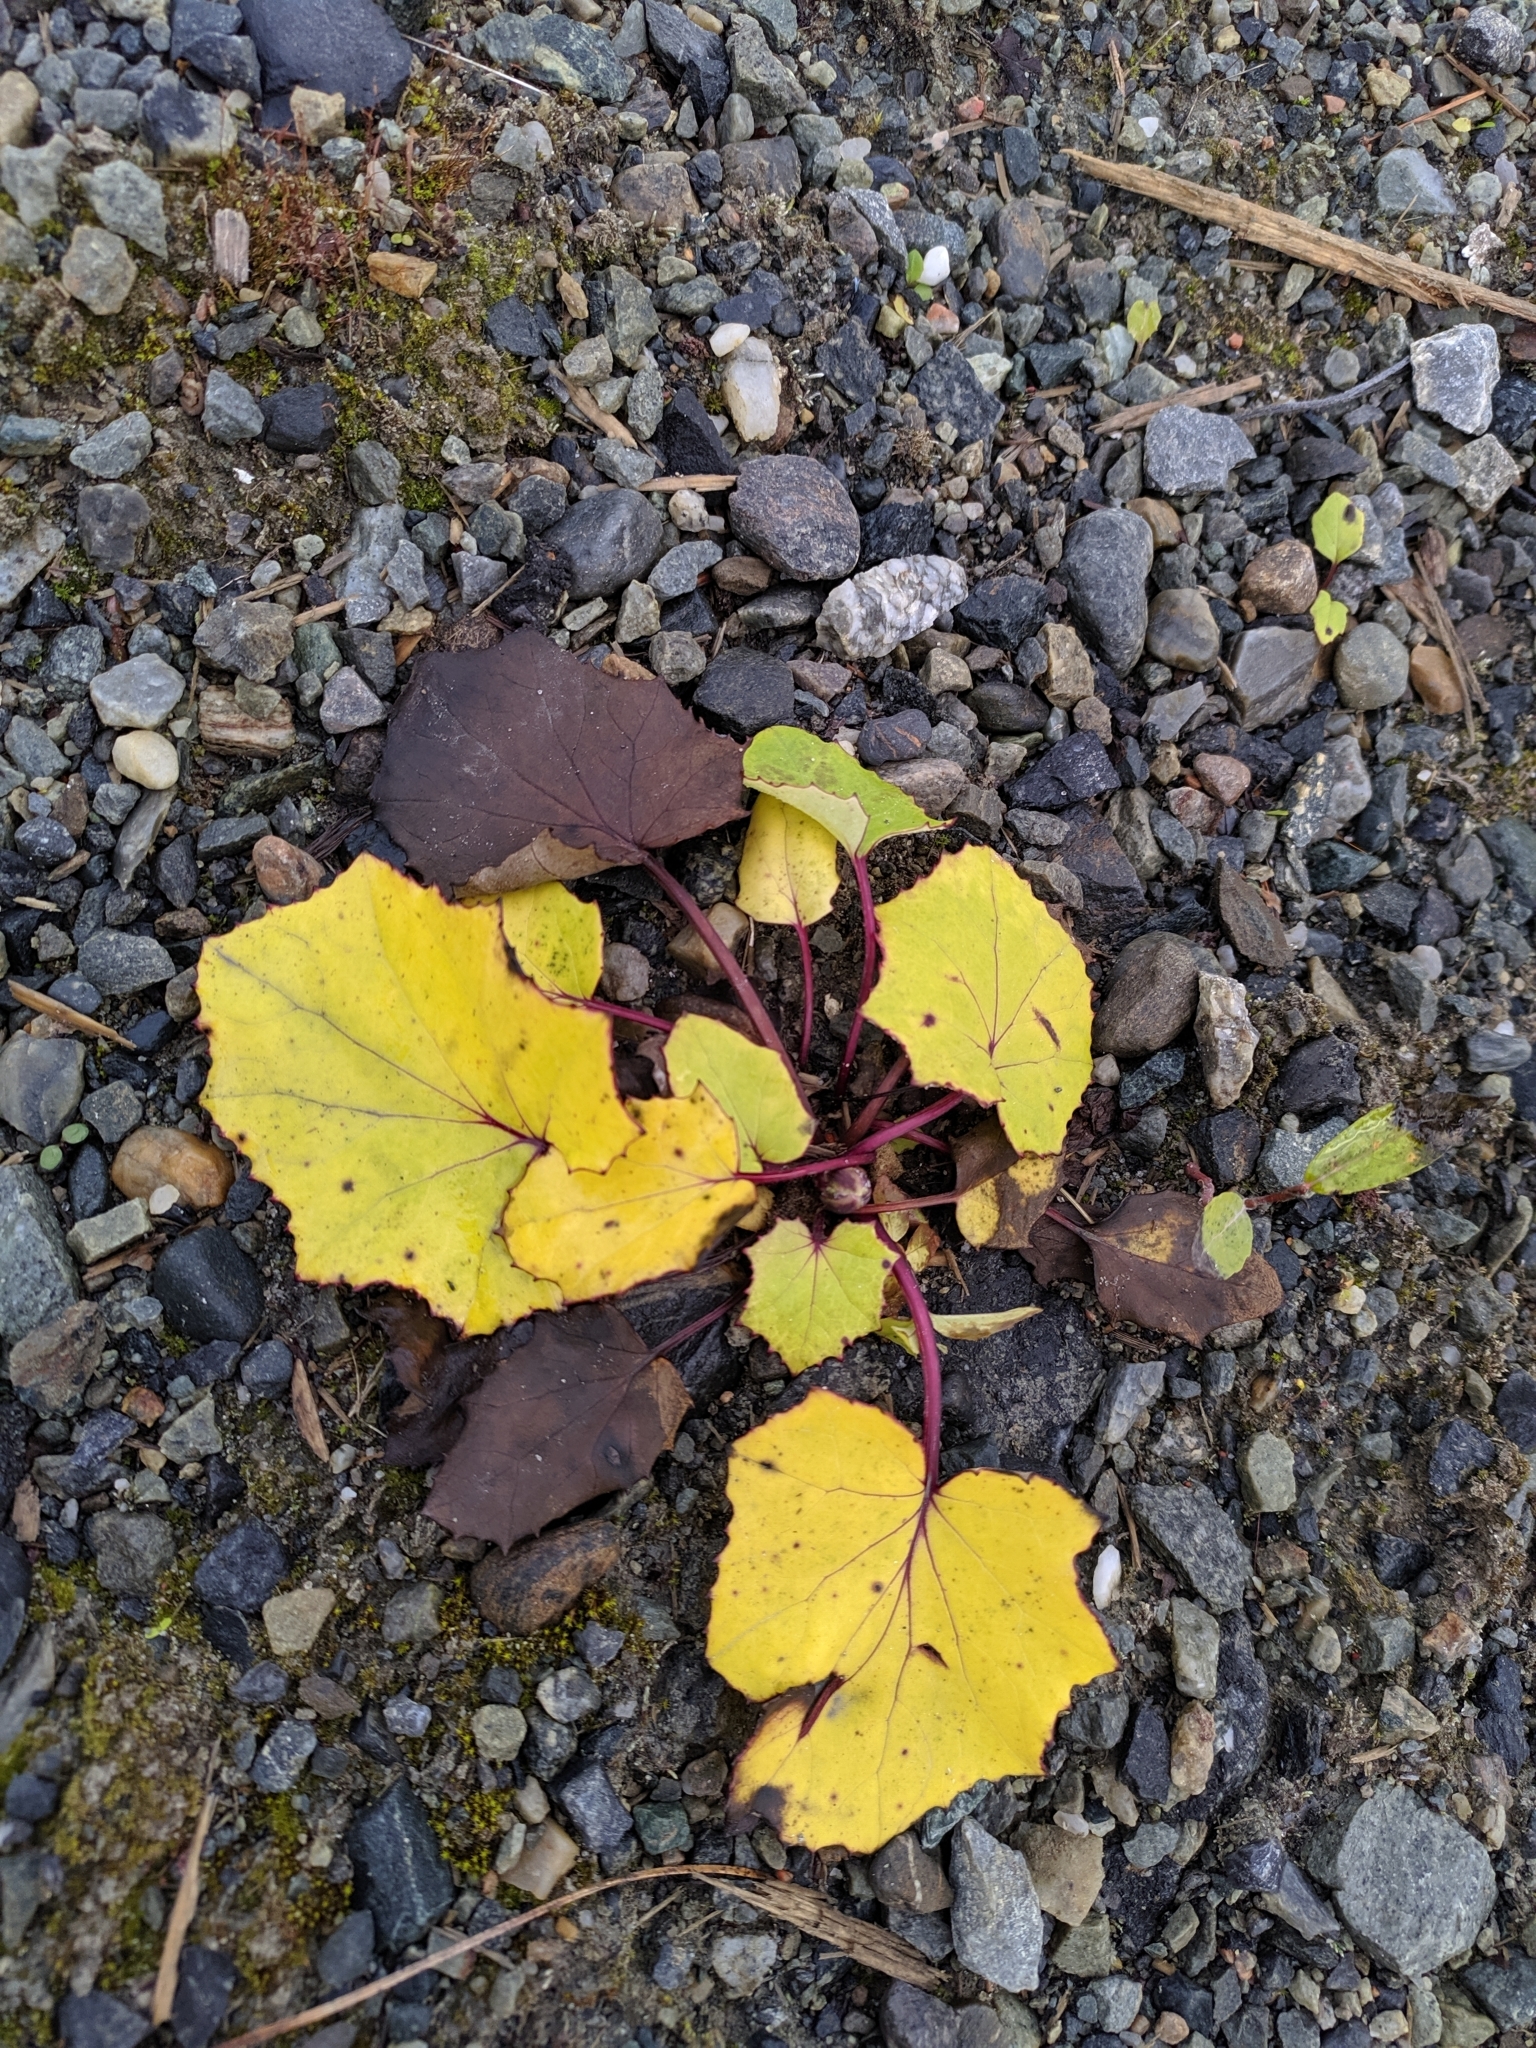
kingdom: Plantae
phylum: Tracheophyta
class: Magnoliopsida
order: Asterales
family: Asteraceae
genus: Tussilago
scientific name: Tussilago farfara
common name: Coltsfoot
